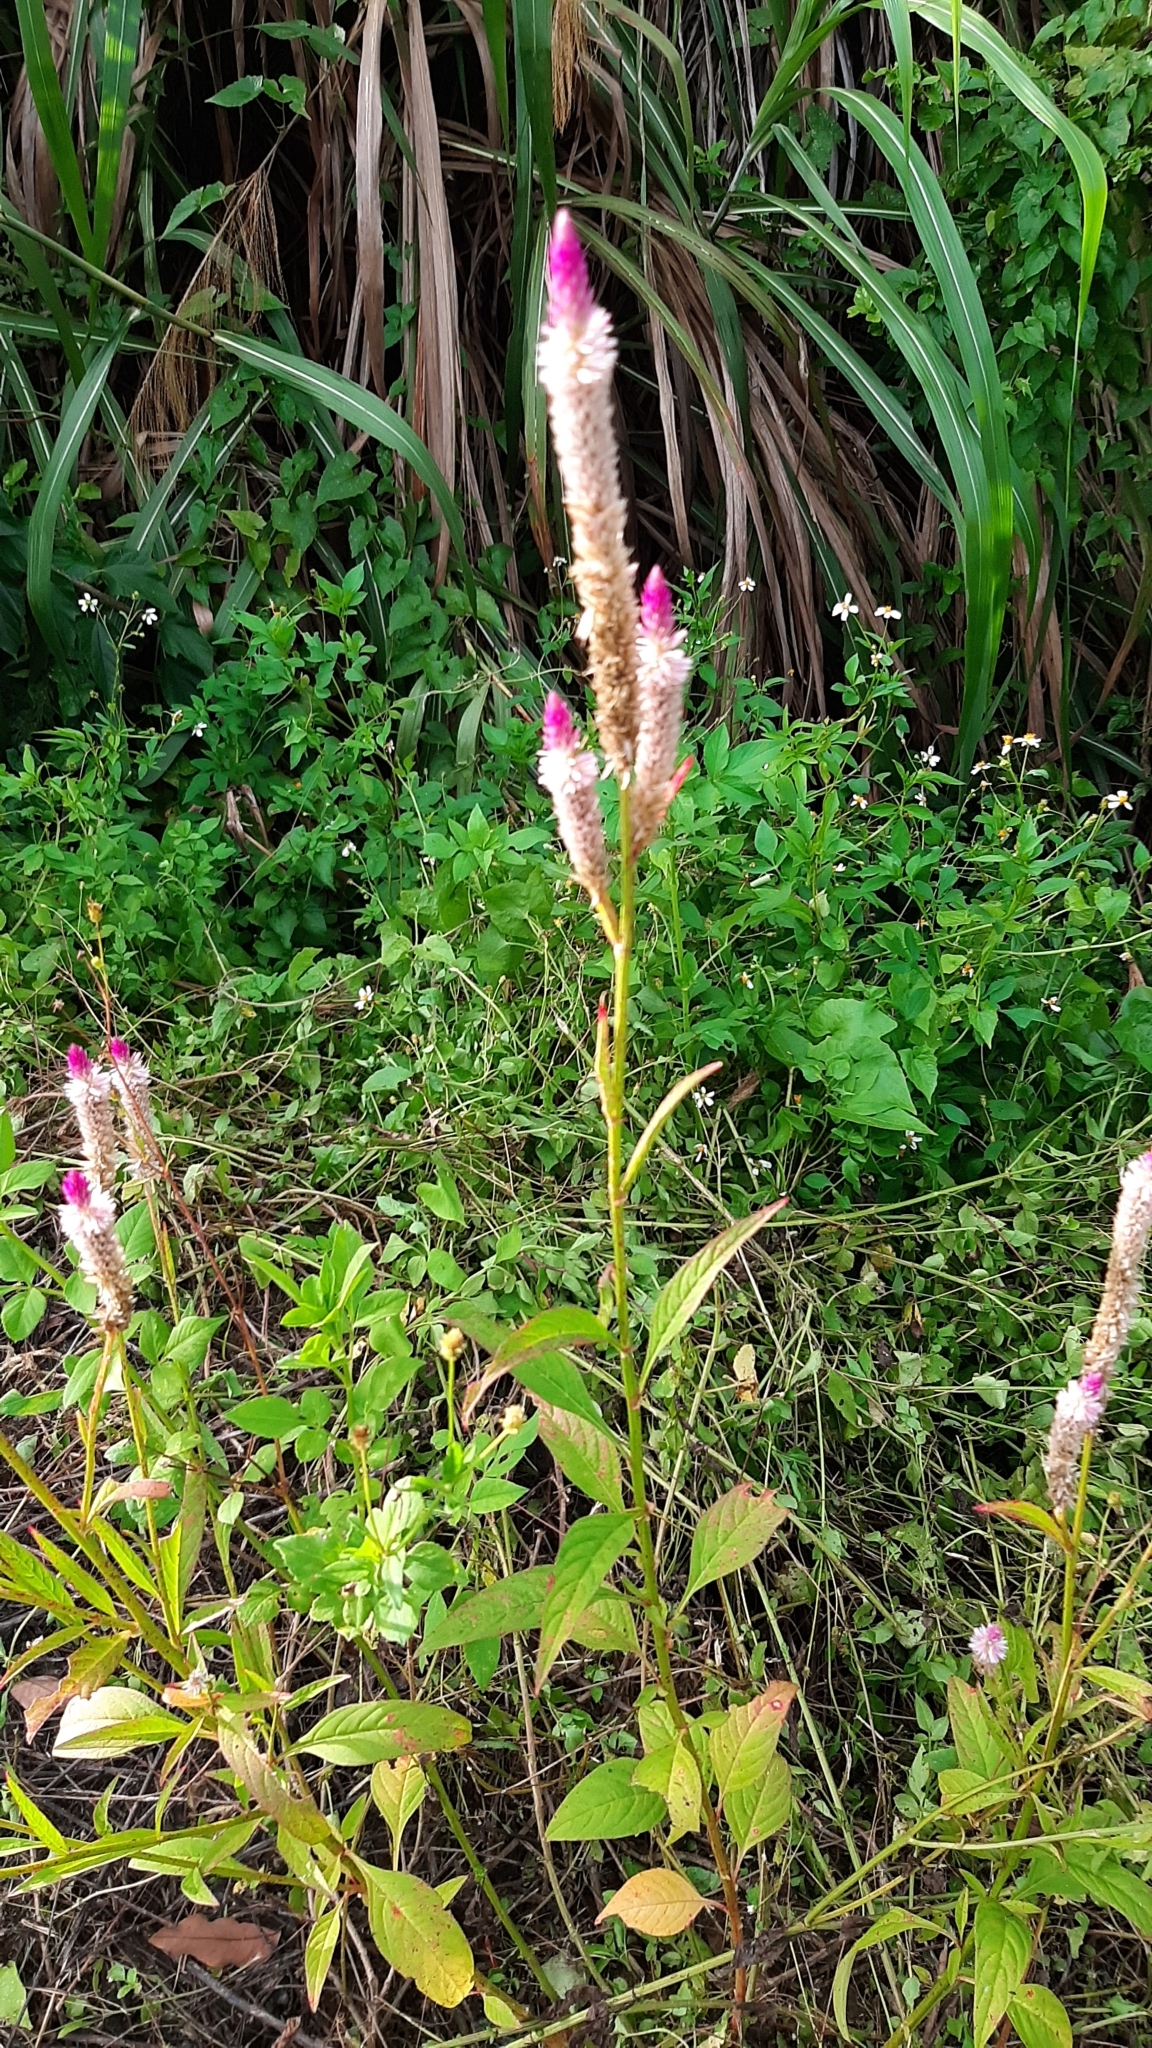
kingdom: Plantae
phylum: Tracheophyta
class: Magnoliopsida
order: Caryophyllales
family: Amaranthaceae
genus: Celosia
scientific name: Celosia argentea
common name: Feather cockscomb
